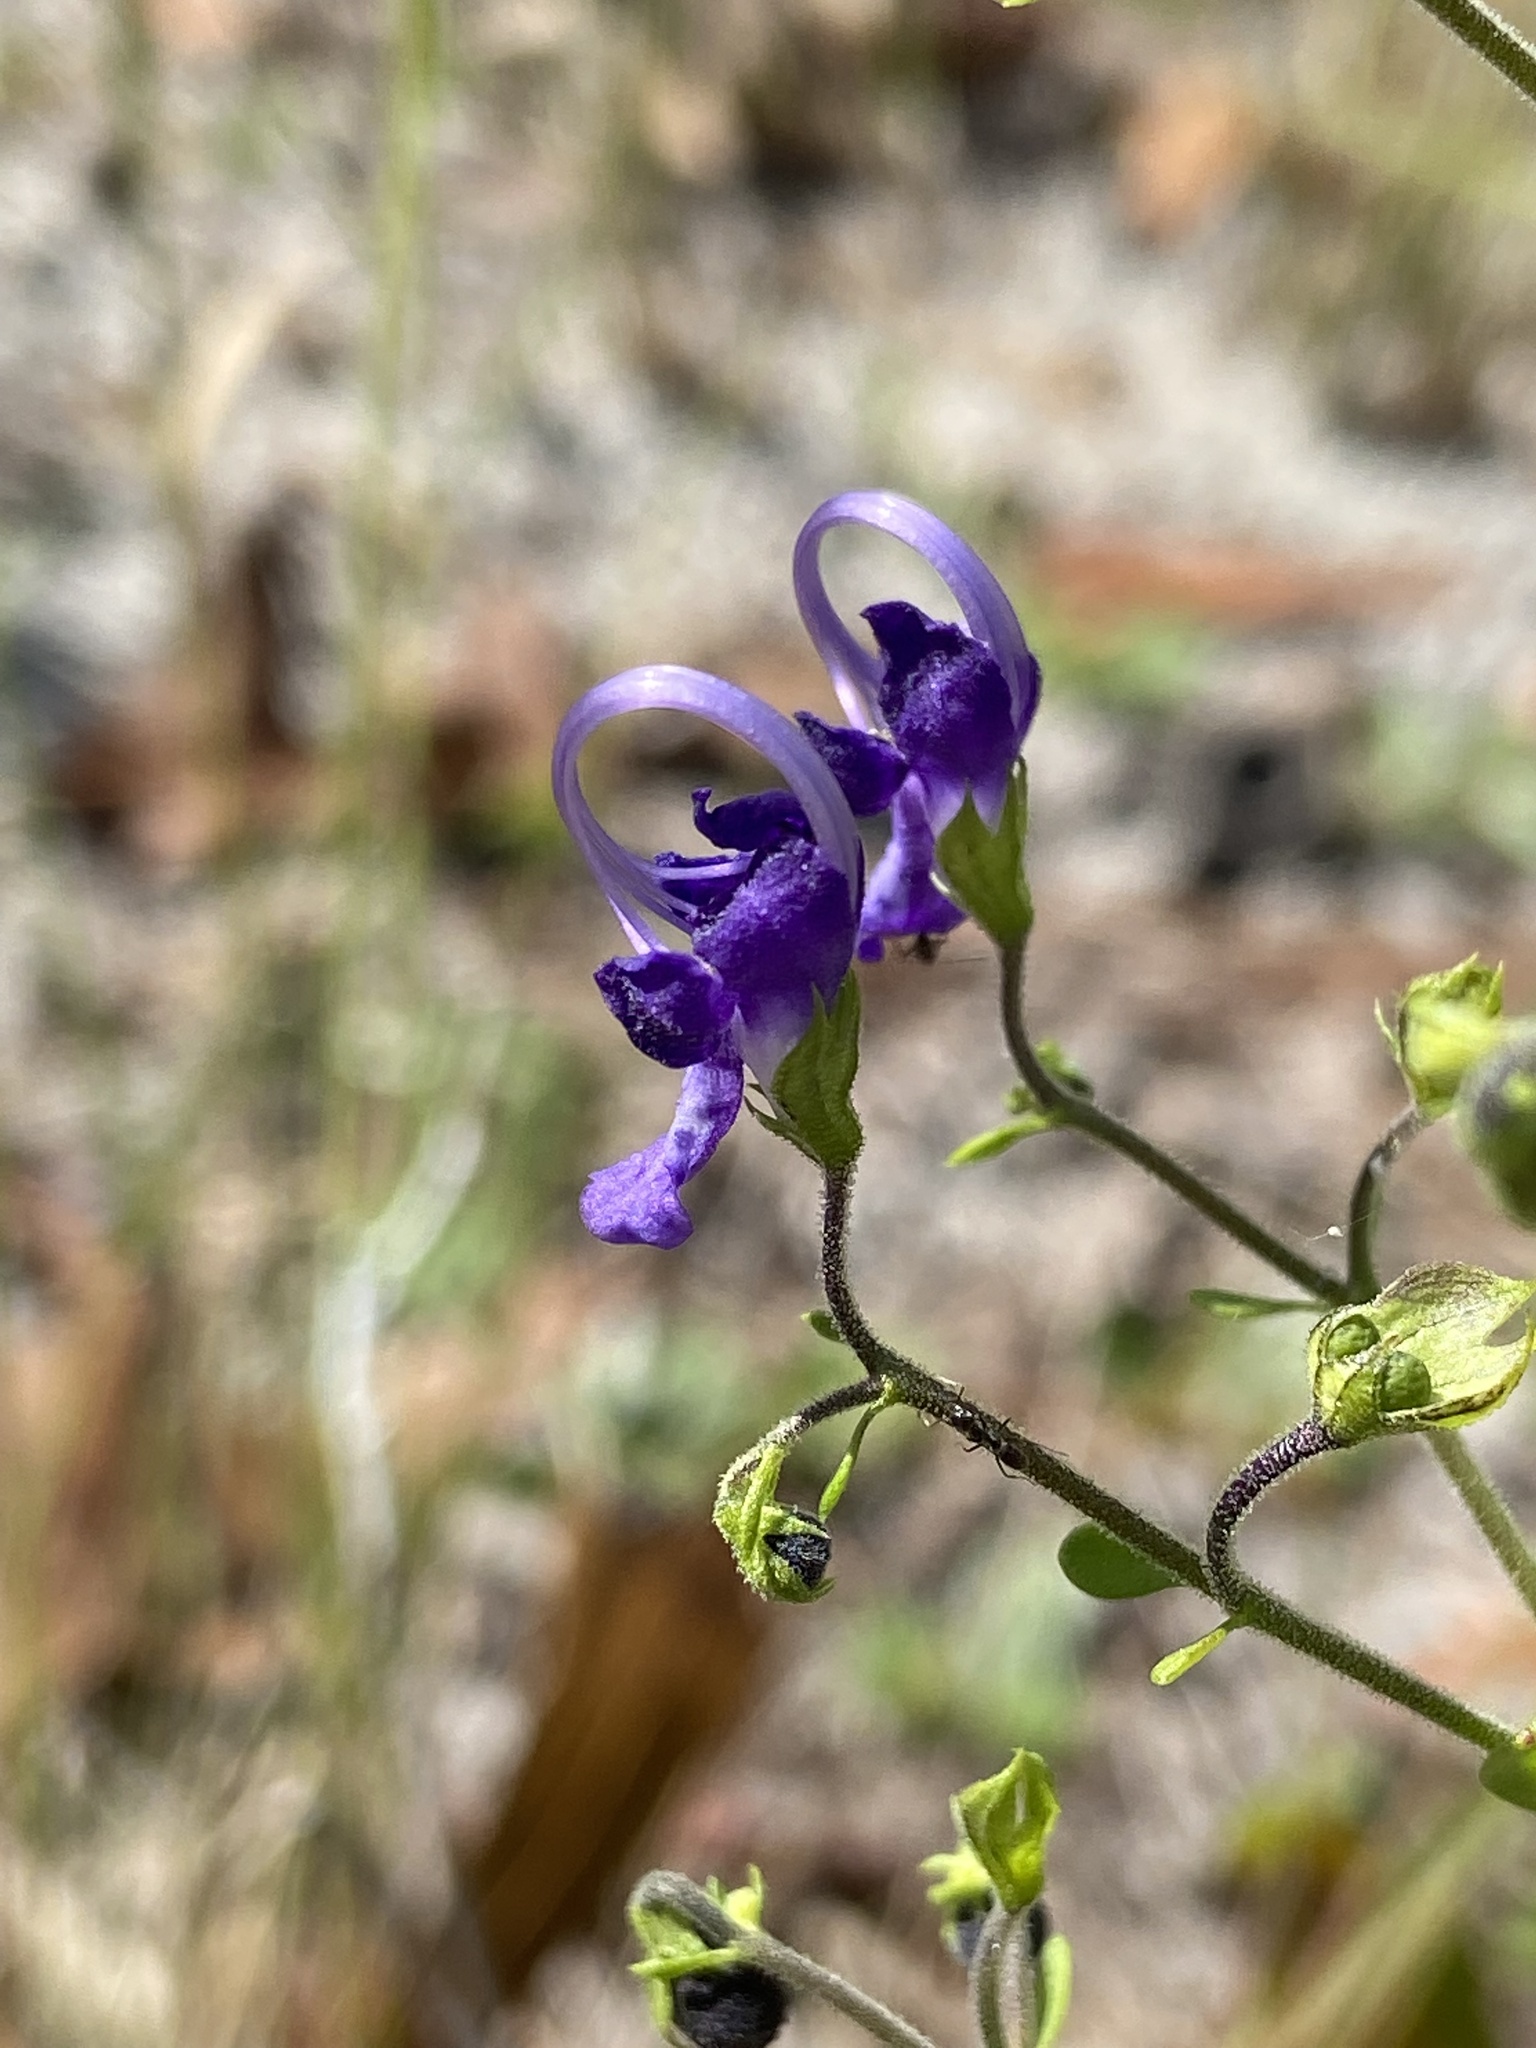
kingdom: Plantae
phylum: Tracheophyta
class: Magnoliopsida
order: Lamiales
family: Lamiaceae
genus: Trichostema
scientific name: Trichostema bridgesii-orzellii
